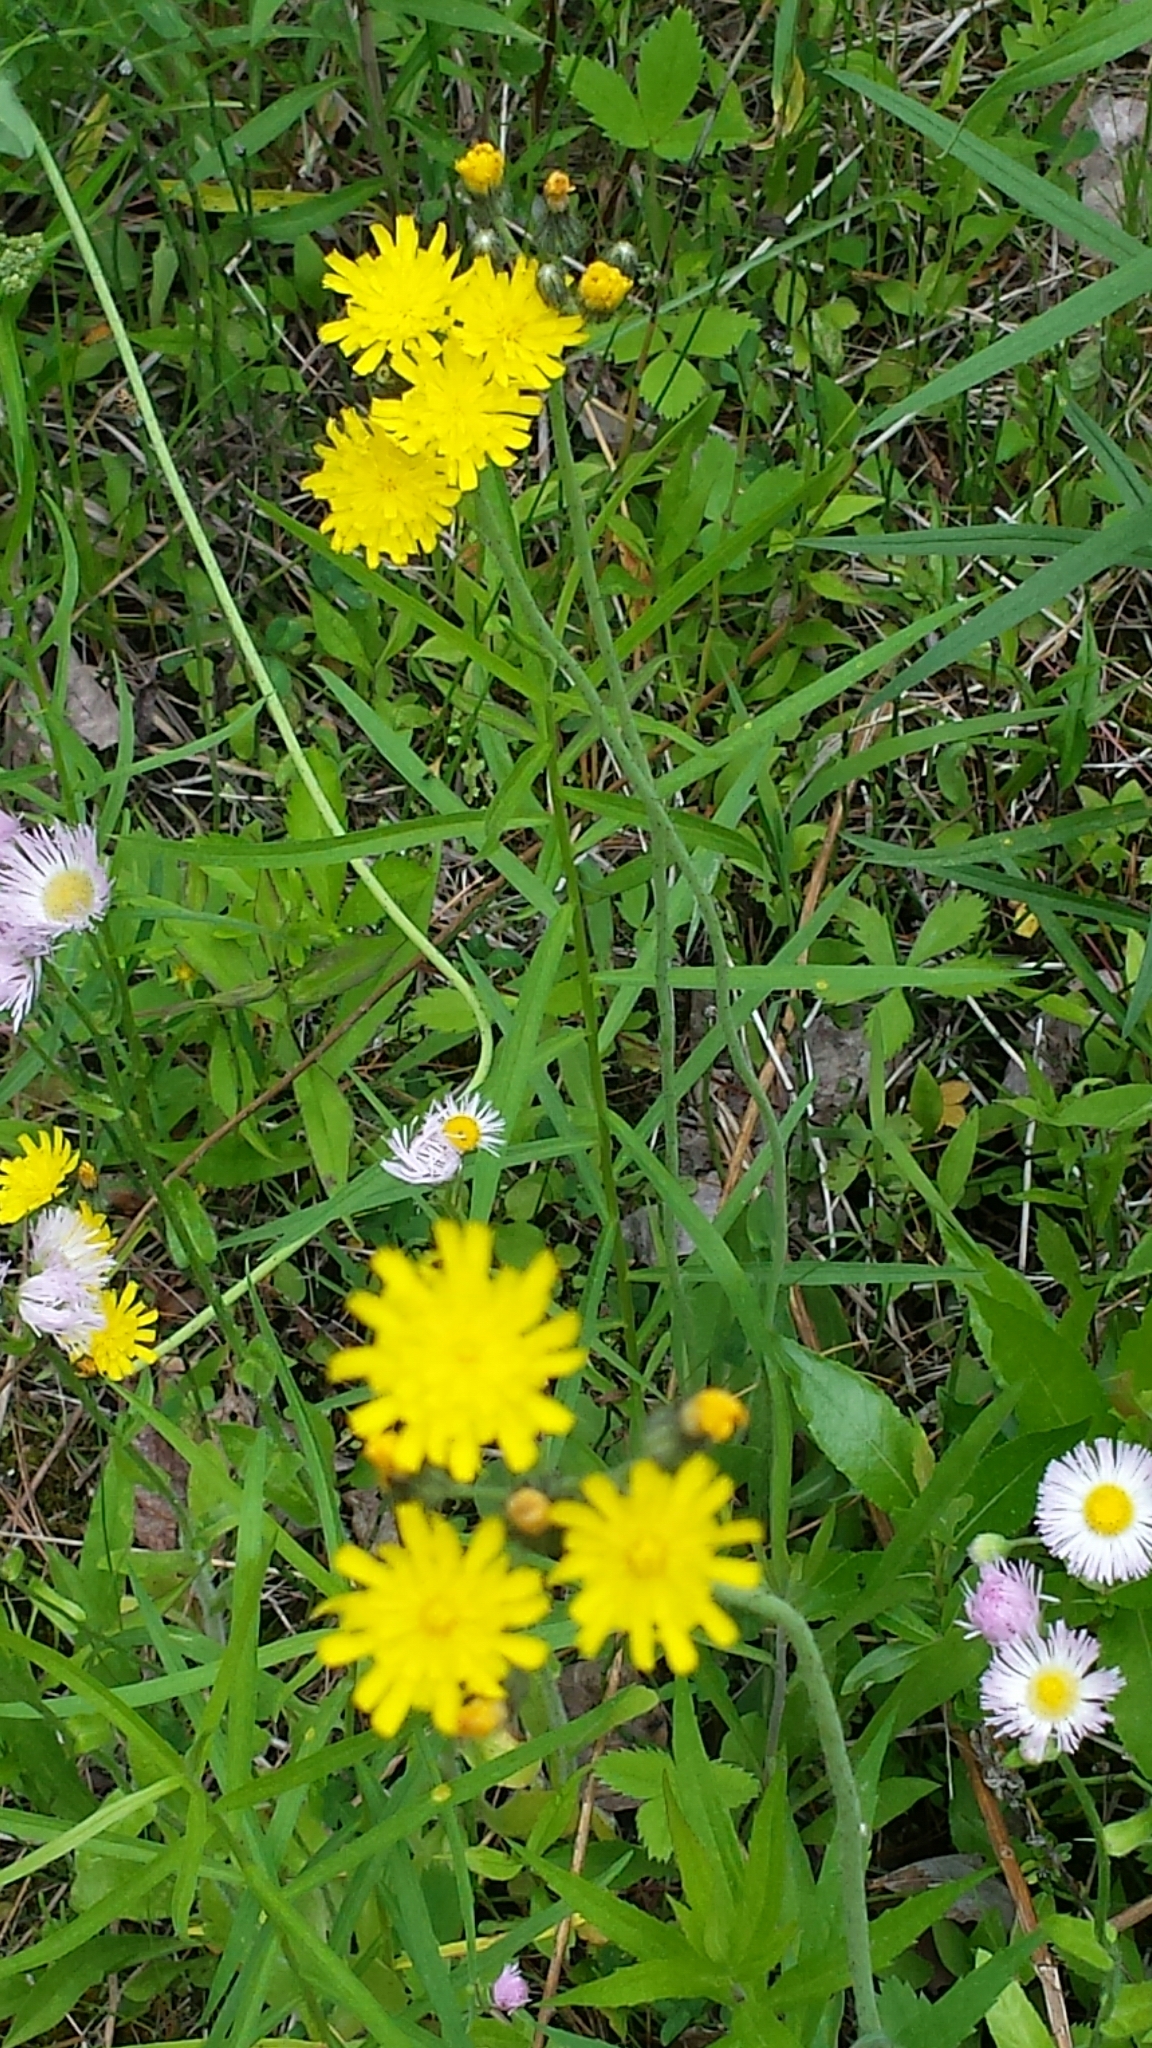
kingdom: Plantae
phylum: Tracheophyta
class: Magnoliopsida
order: Asterales
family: Asteraceae
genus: Pilosella
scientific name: Pilosella caespitosa
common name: Yellow fox-and-cubs
